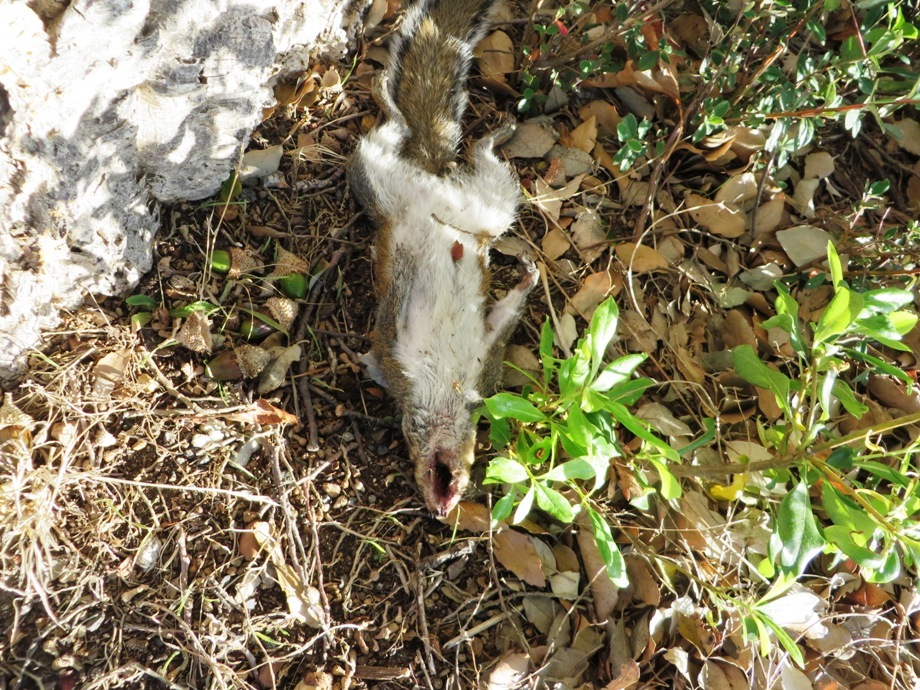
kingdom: Animalia
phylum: Chordata
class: Mammalia
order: Rodentia
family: Sciuridae
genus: Sciurus
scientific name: Sciurus carolinensis
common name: Eastern gray squirrel
